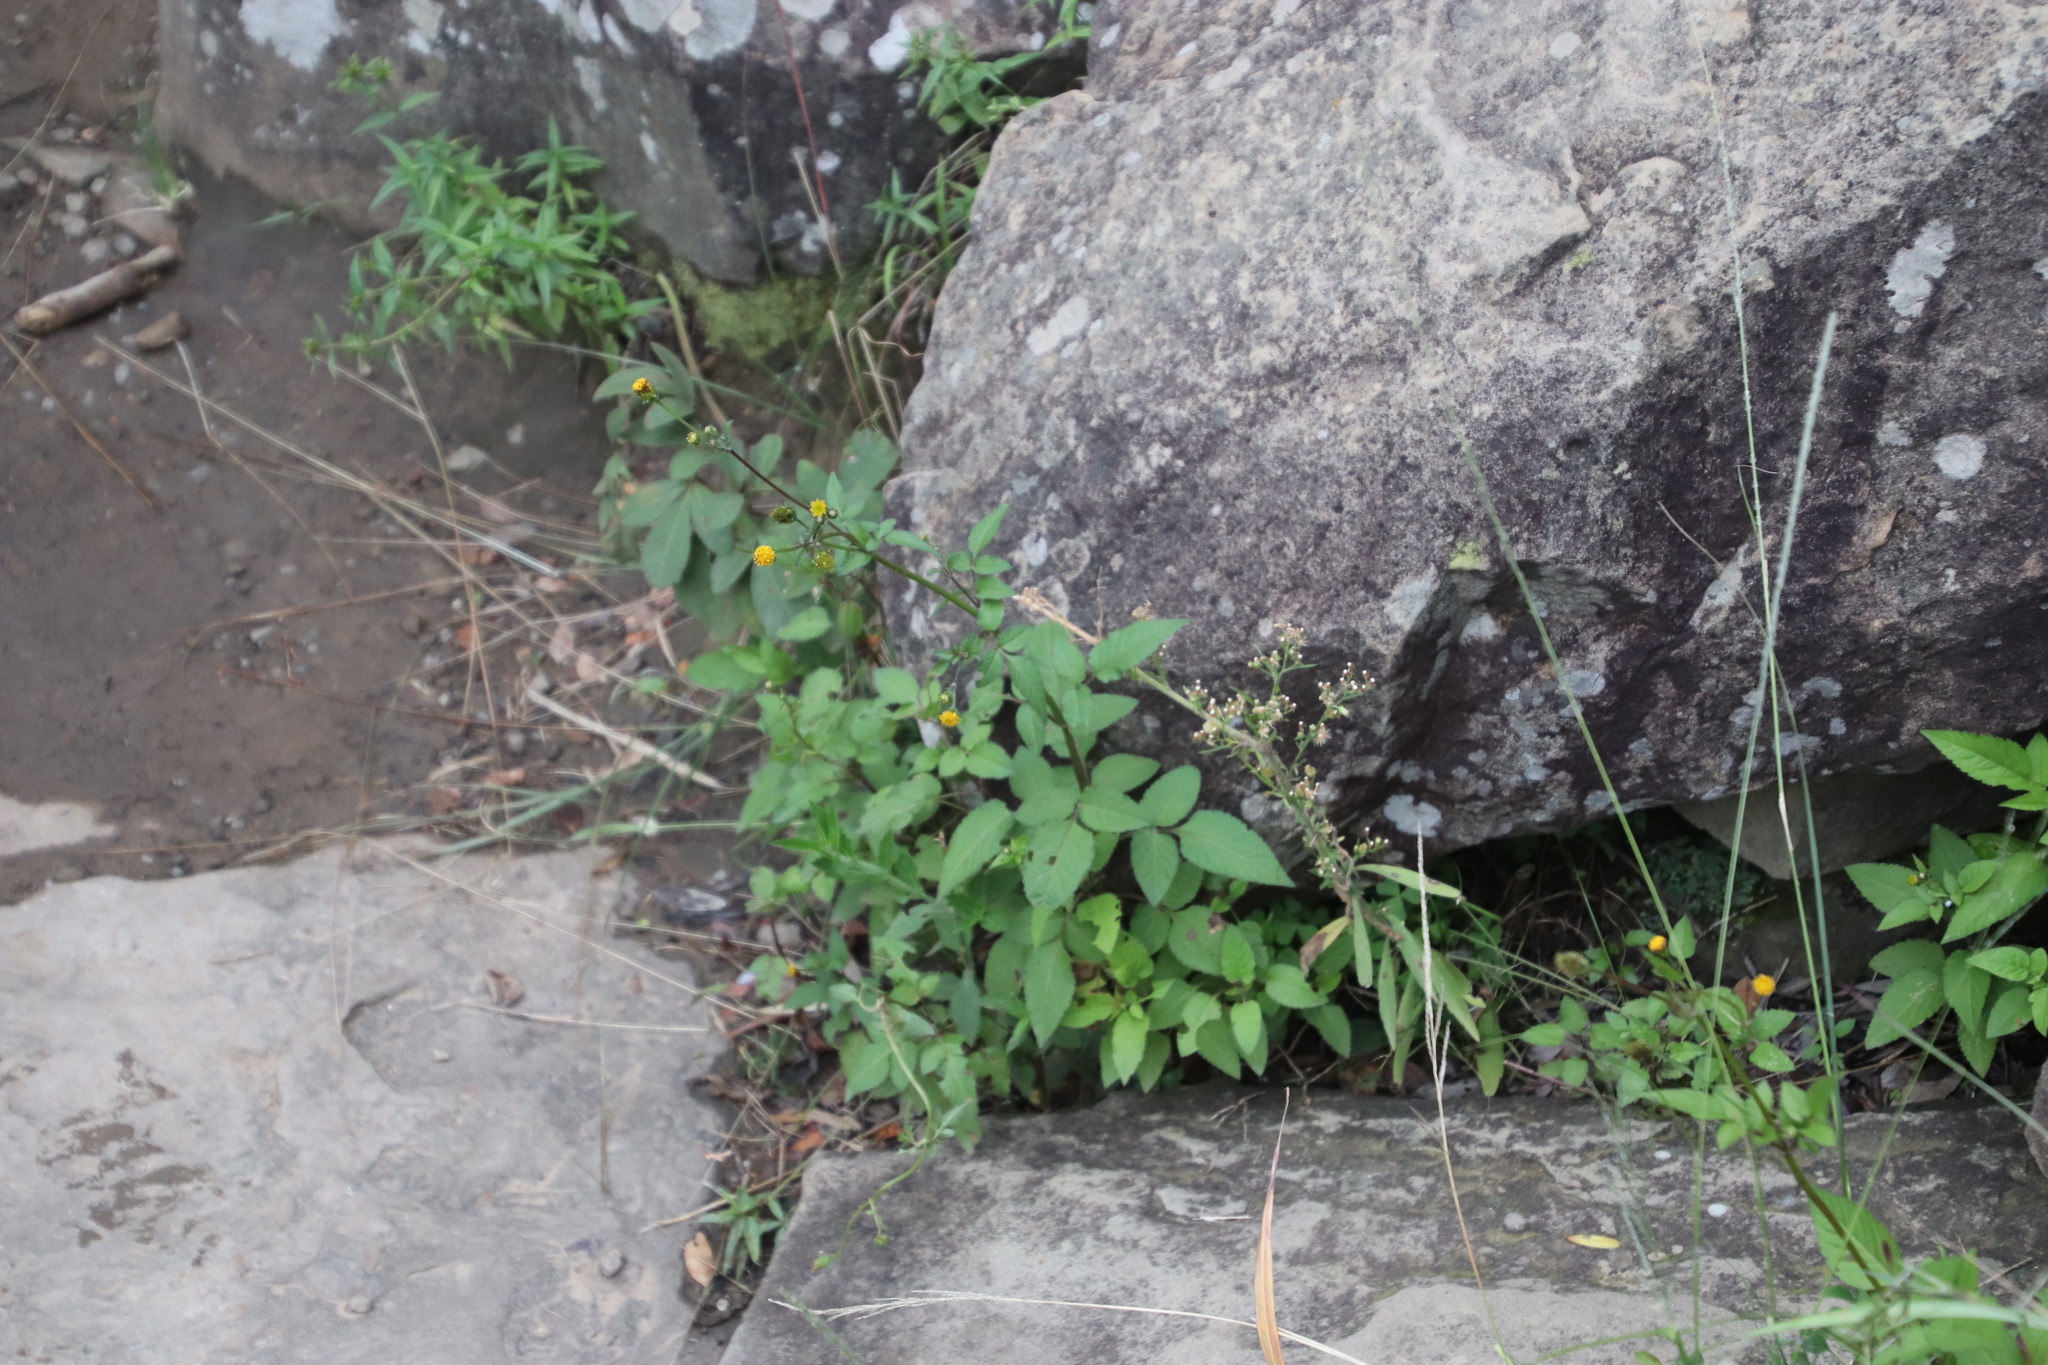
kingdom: Plantae
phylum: Tracheophyta
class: Magnoliopsida
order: Asterales
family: Asteraceae
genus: Bidens
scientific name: Bidens pilosa
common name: Black-jack
